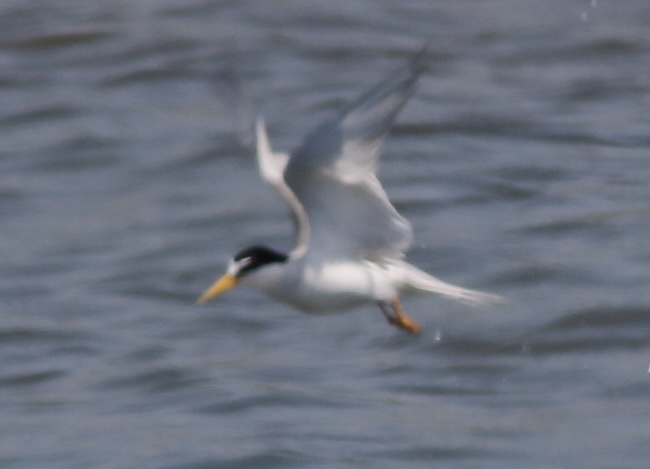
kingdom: Animalia
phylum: Chordata
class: Aves
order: Charadriiformes
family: Laridae
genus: Sternula
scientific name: Sternula antillarum
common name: Least tern
